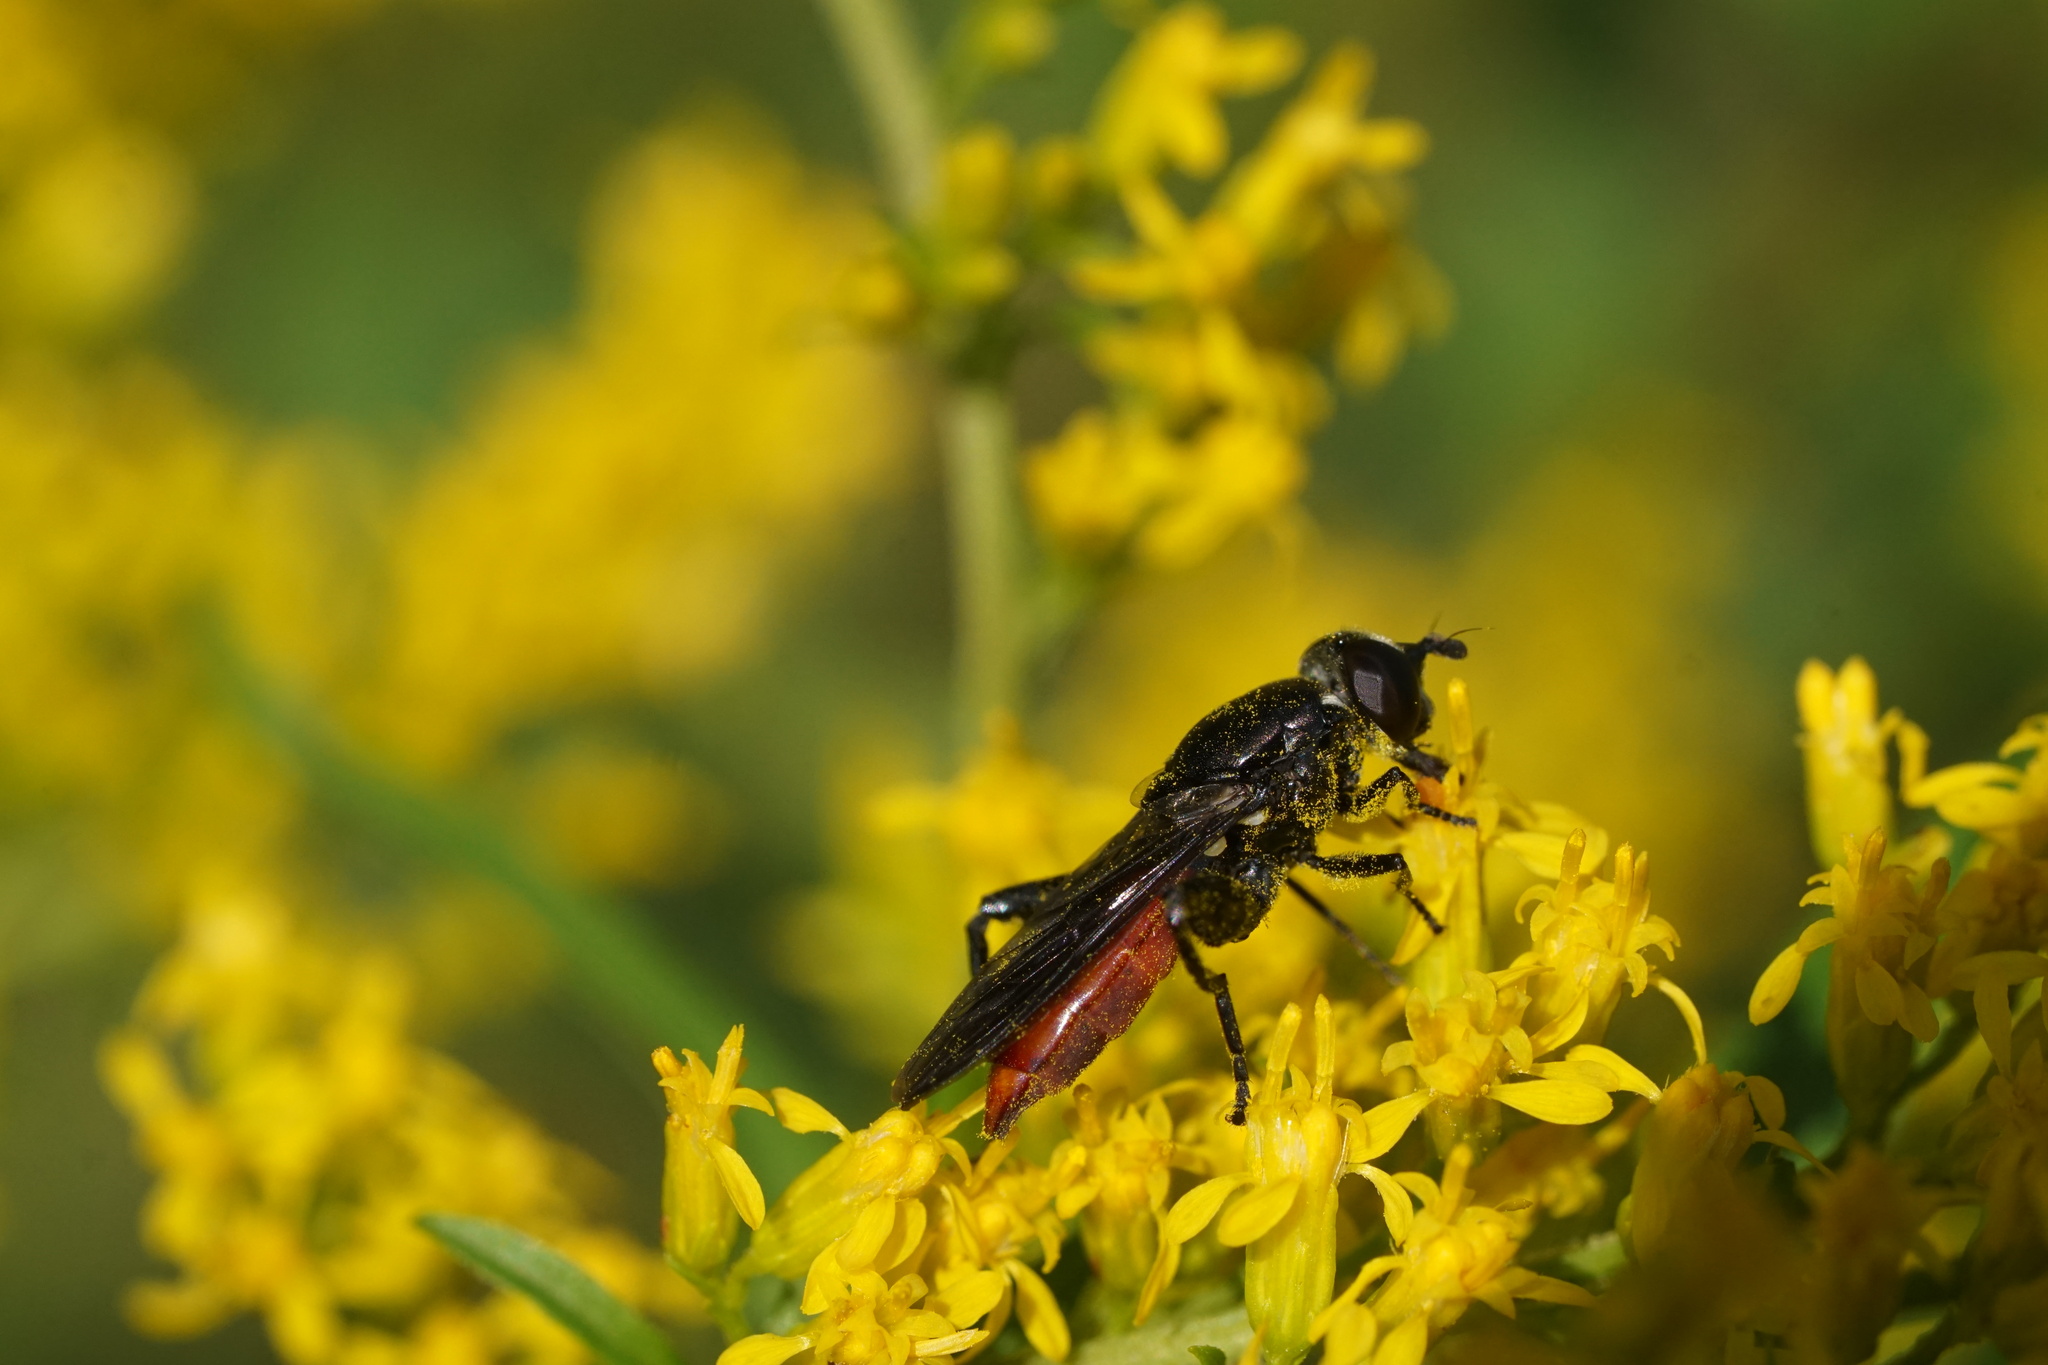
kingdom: Animalia
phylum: Arthropoda
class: Insecta
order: Diptera
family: Syrphidae
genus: Chalcosyrphus
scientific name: Chalcosyrphus piger
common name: Short-haired leafwalker
